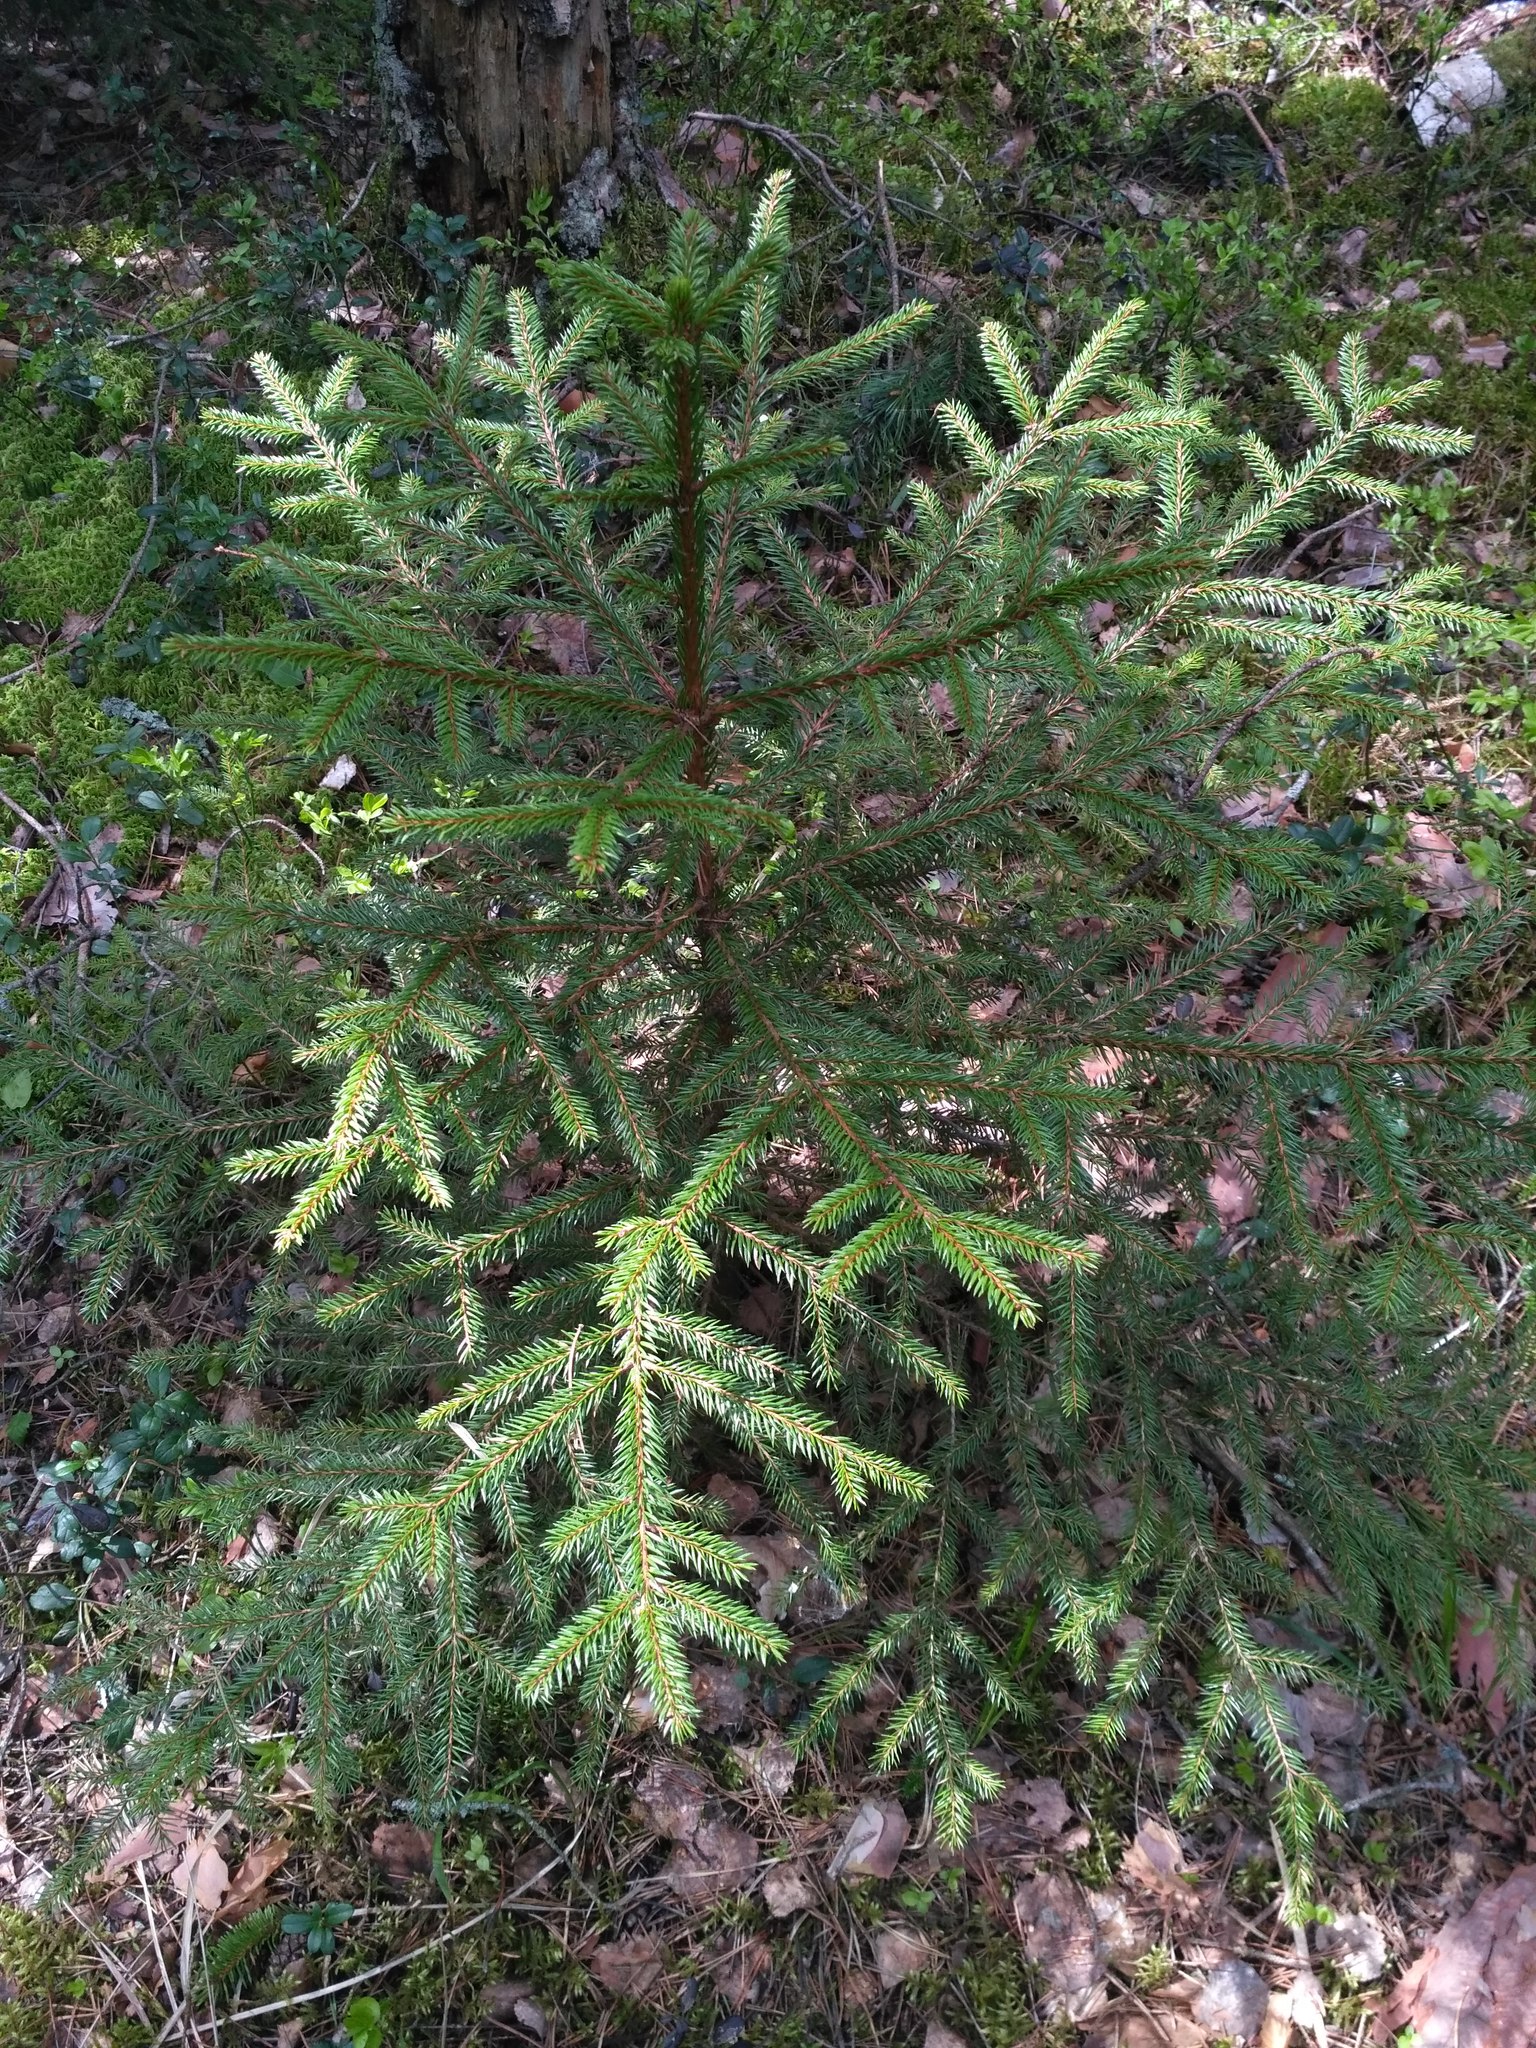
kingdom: Plantae
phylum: Tracheophyta
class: Pinopsida
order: Pinales
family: Pinaceae
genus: Picea
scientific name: Picea abies
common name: Norway spruce
